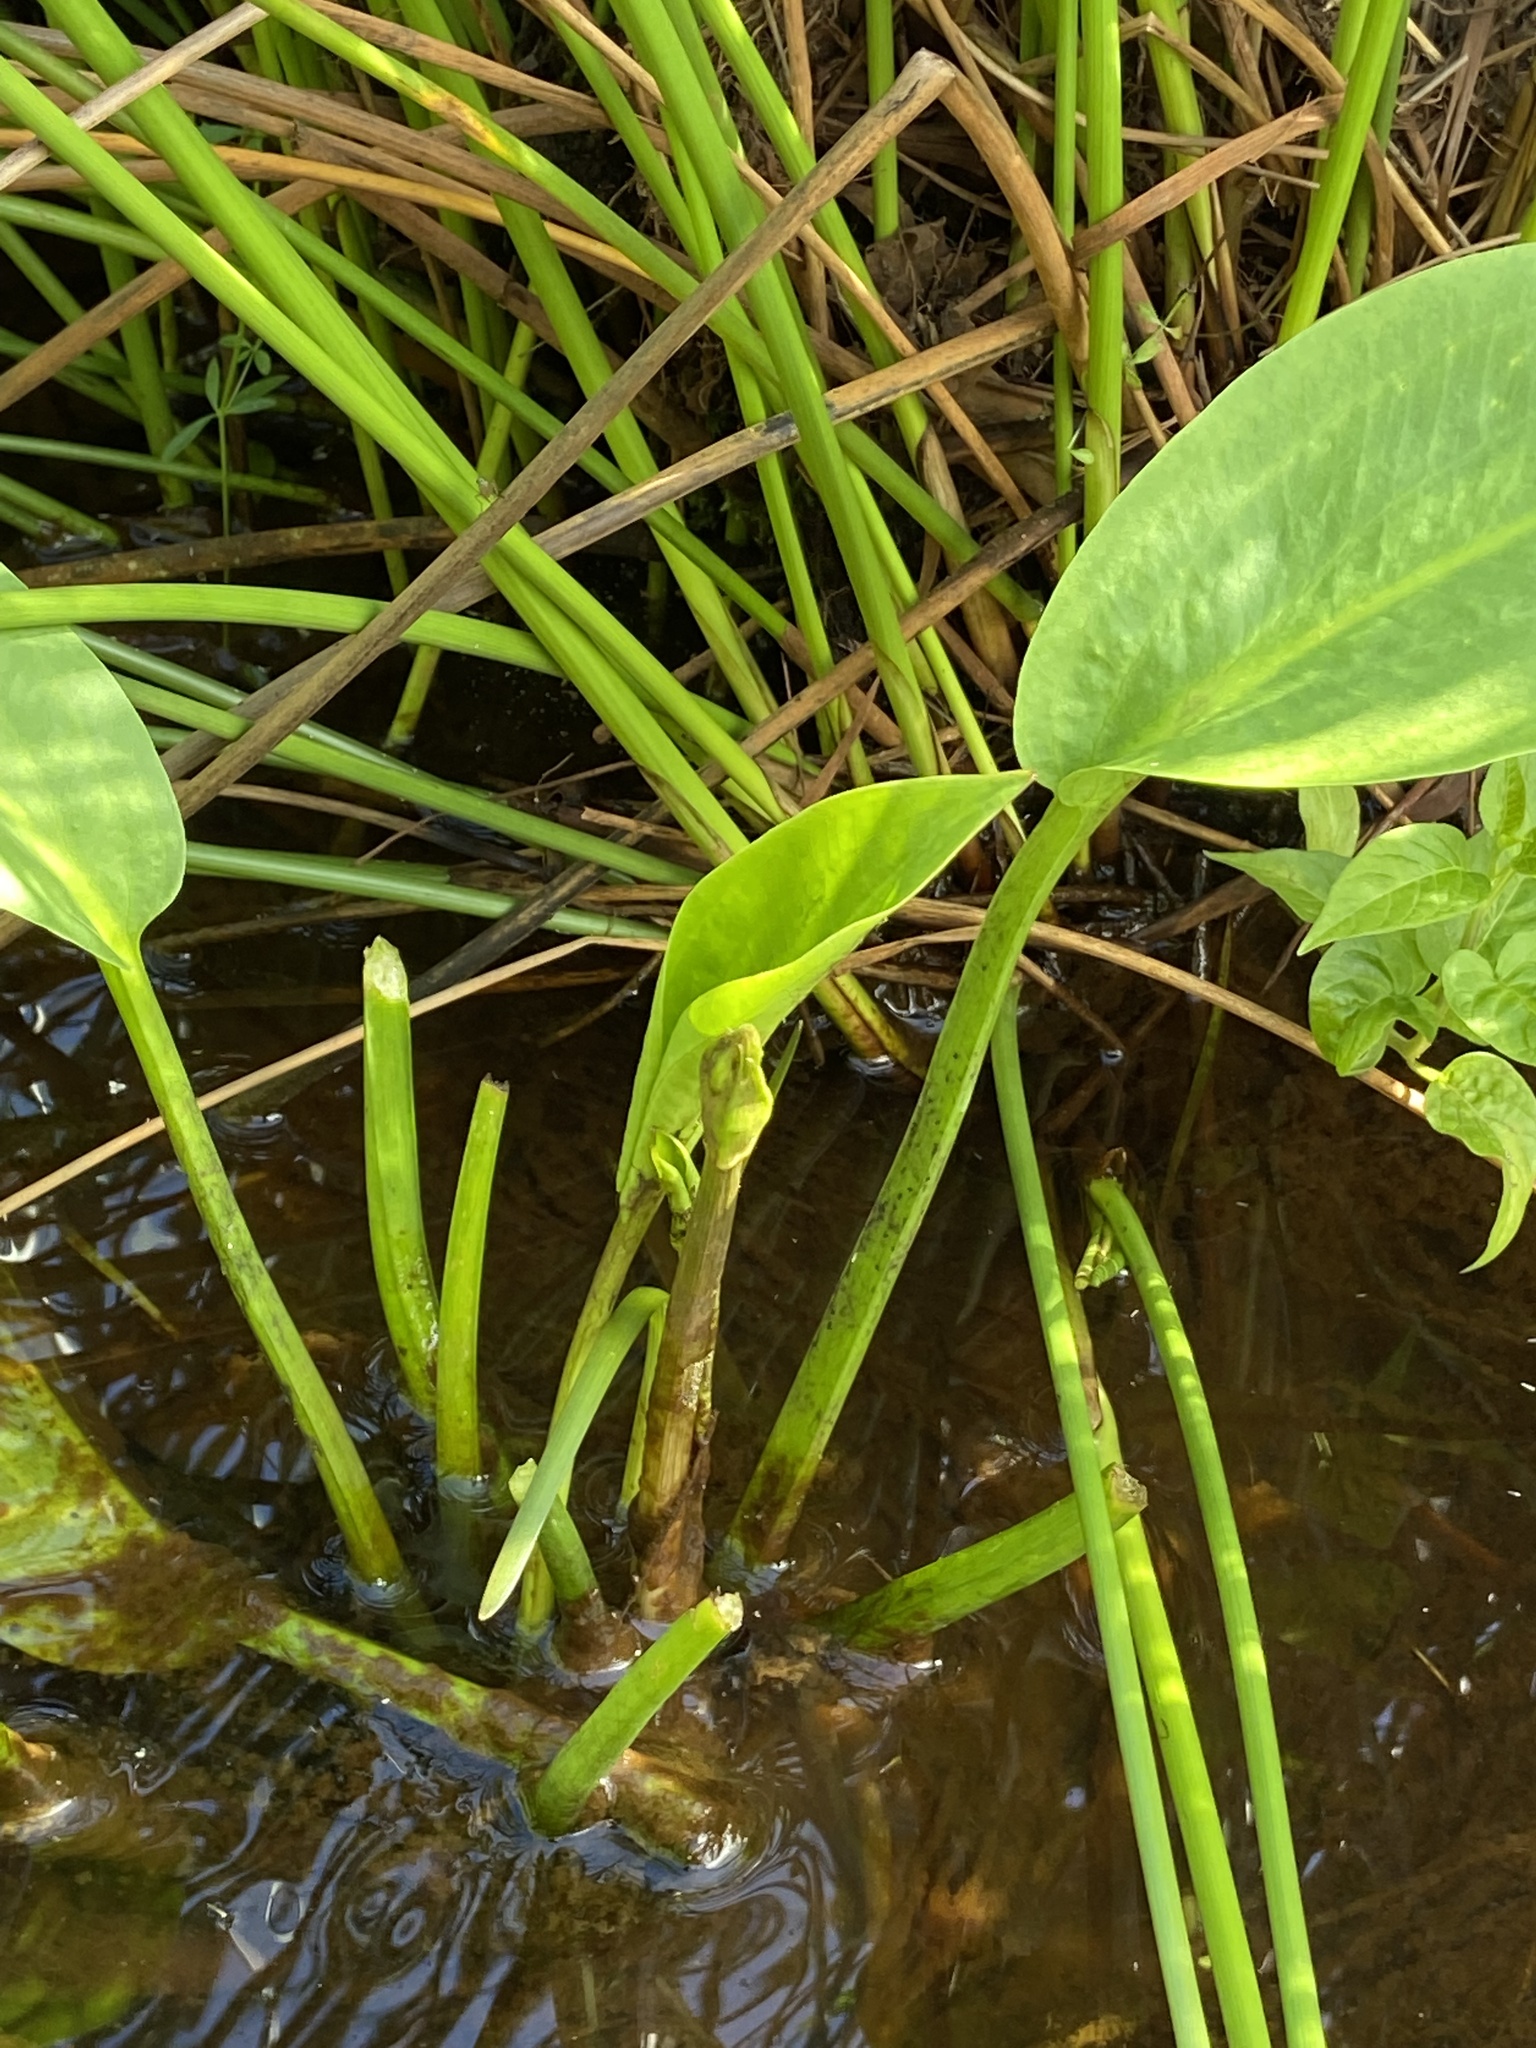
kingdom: Plantae
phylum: Tracheophyta
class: Liliopsida
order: Alismatales
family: Alismataceae
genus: Alisma
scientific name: Alisma plantago-aquatica
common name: Water-plantain
